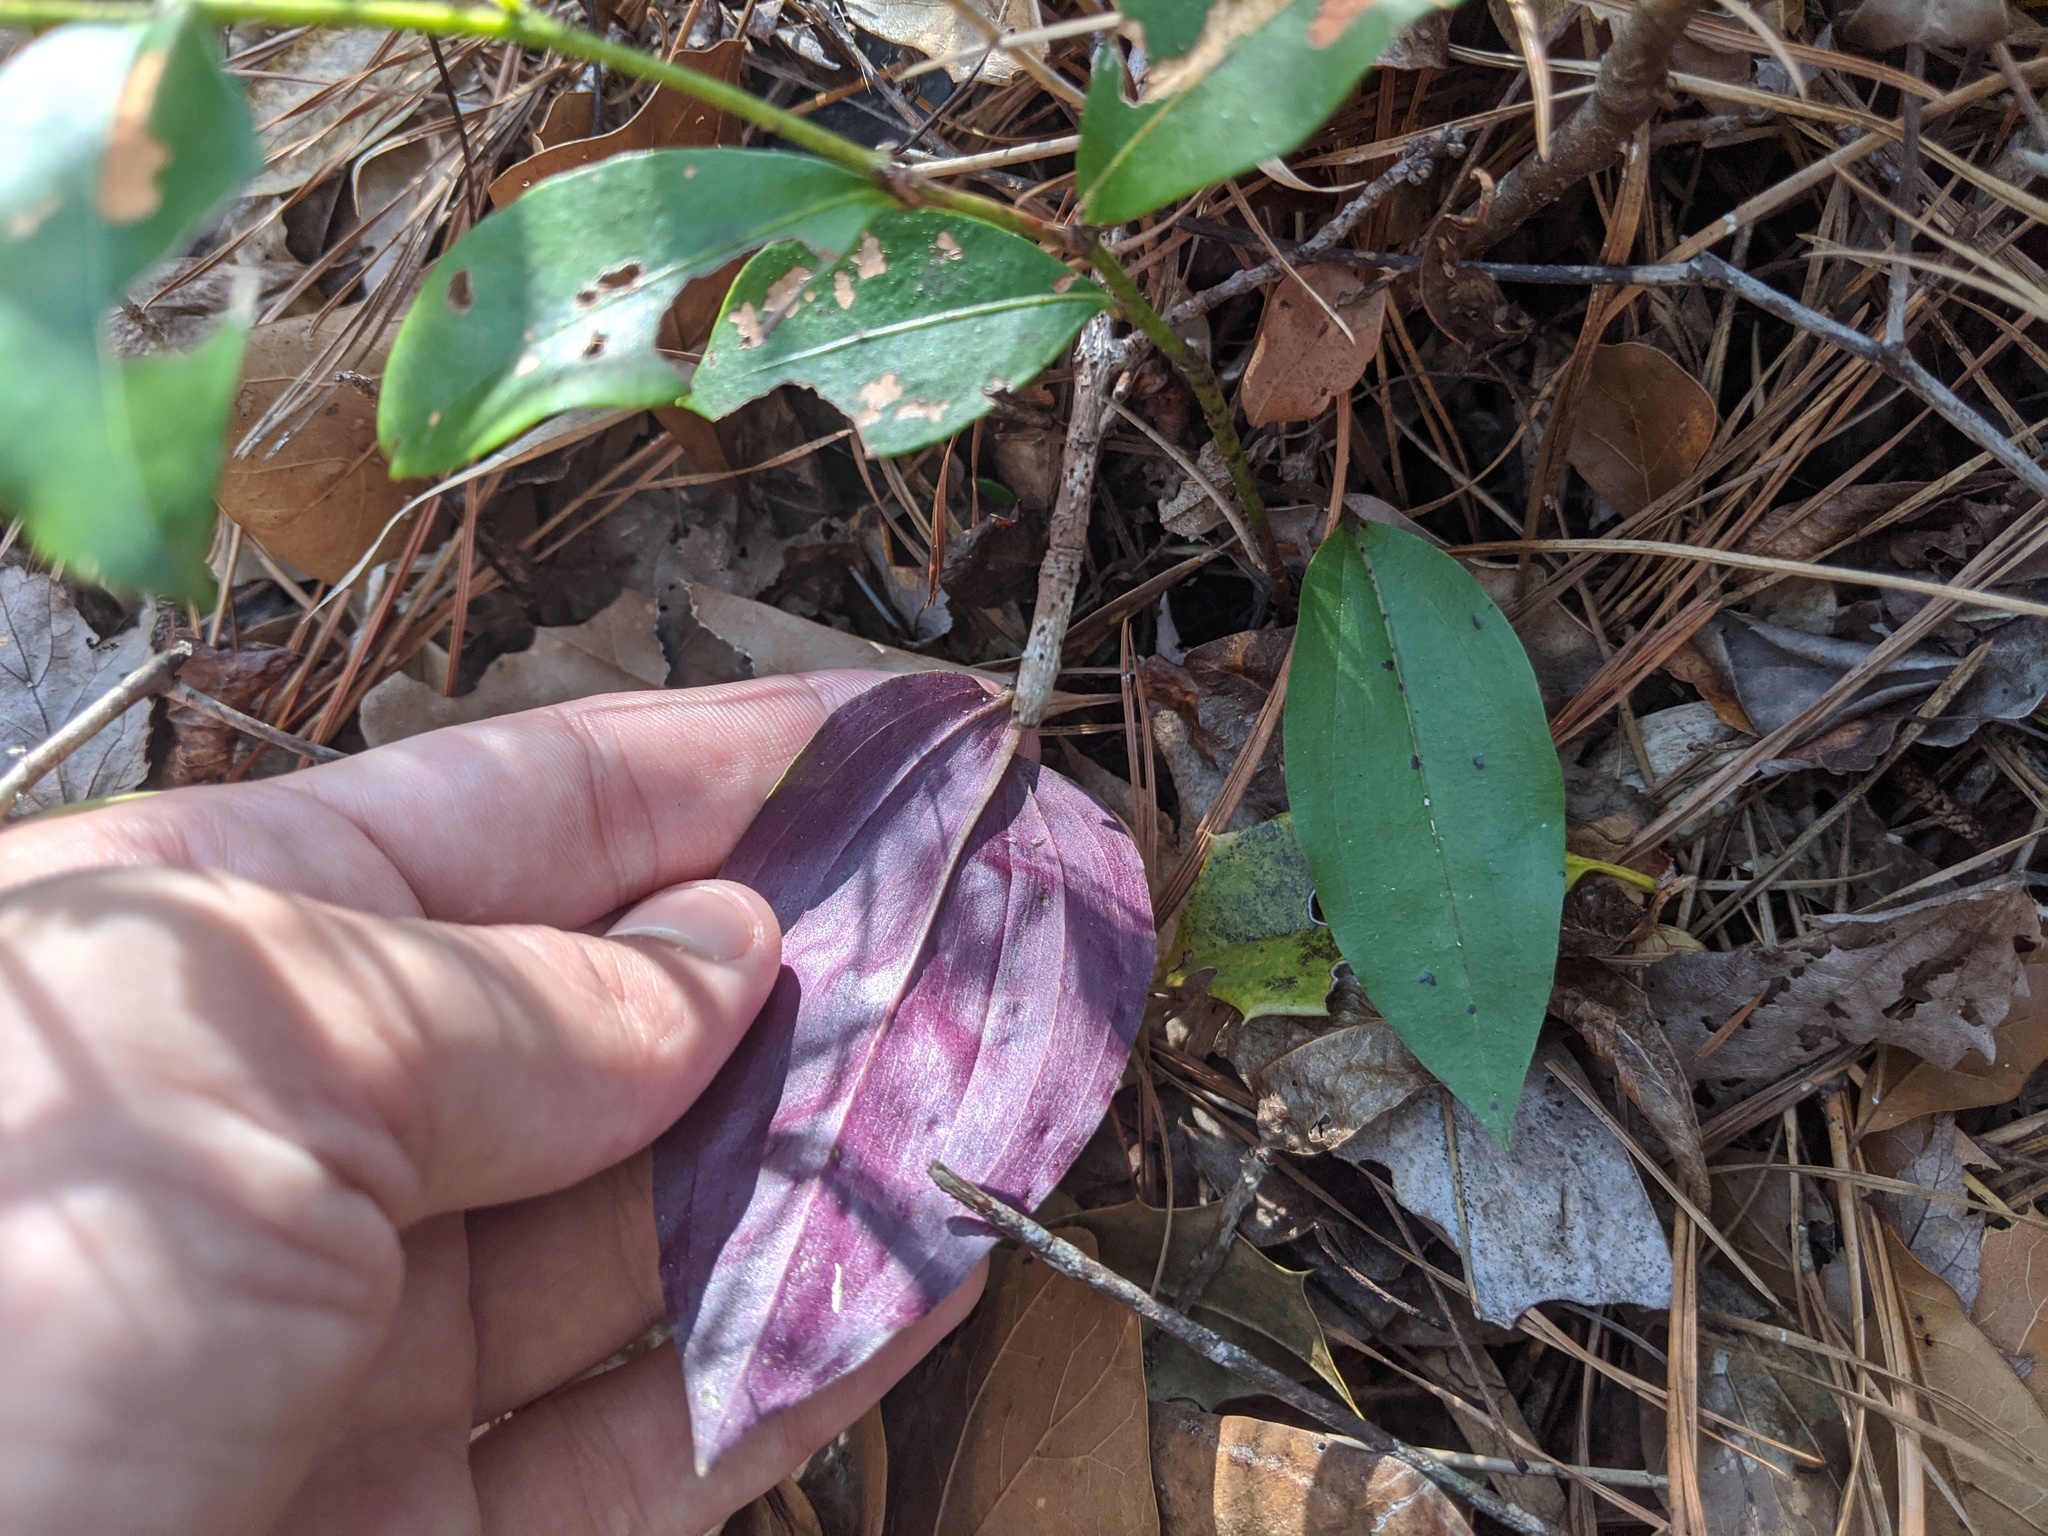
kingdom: Plantae
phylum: Tracheophyta
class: Liliopsida
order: Asparagales
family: Orchidaceae
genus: Tipularia
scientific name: Tipularia discolor
